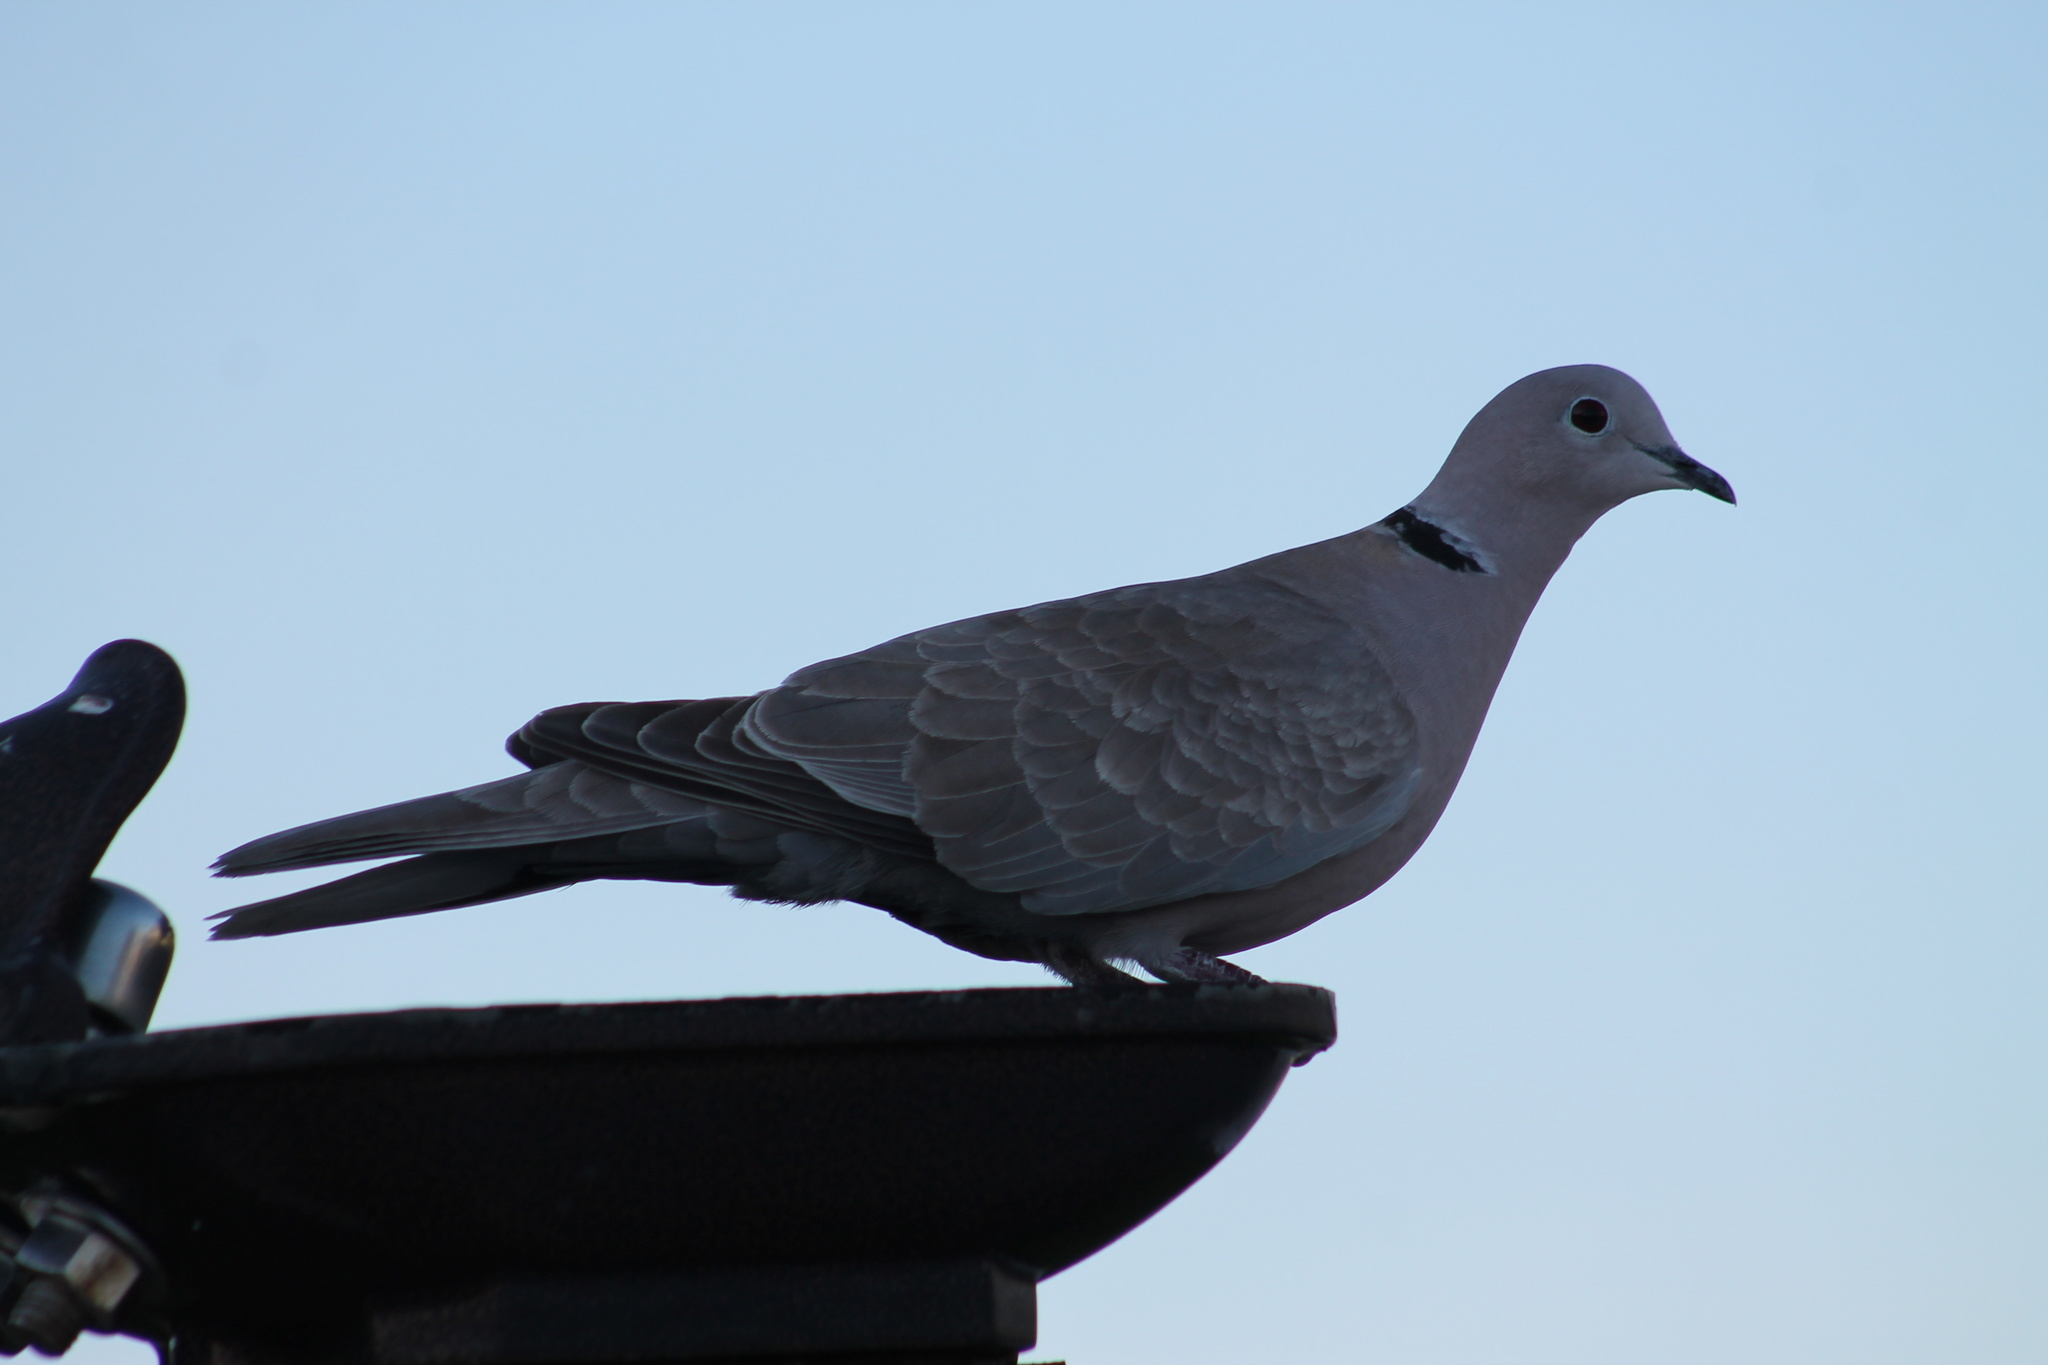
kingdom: Animalia
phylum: Chordata
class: Aves
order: Columbiformes
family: Columbidae
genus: Streptopelia
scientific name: Streptopelia decaocto
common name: Eurasian collared dove
